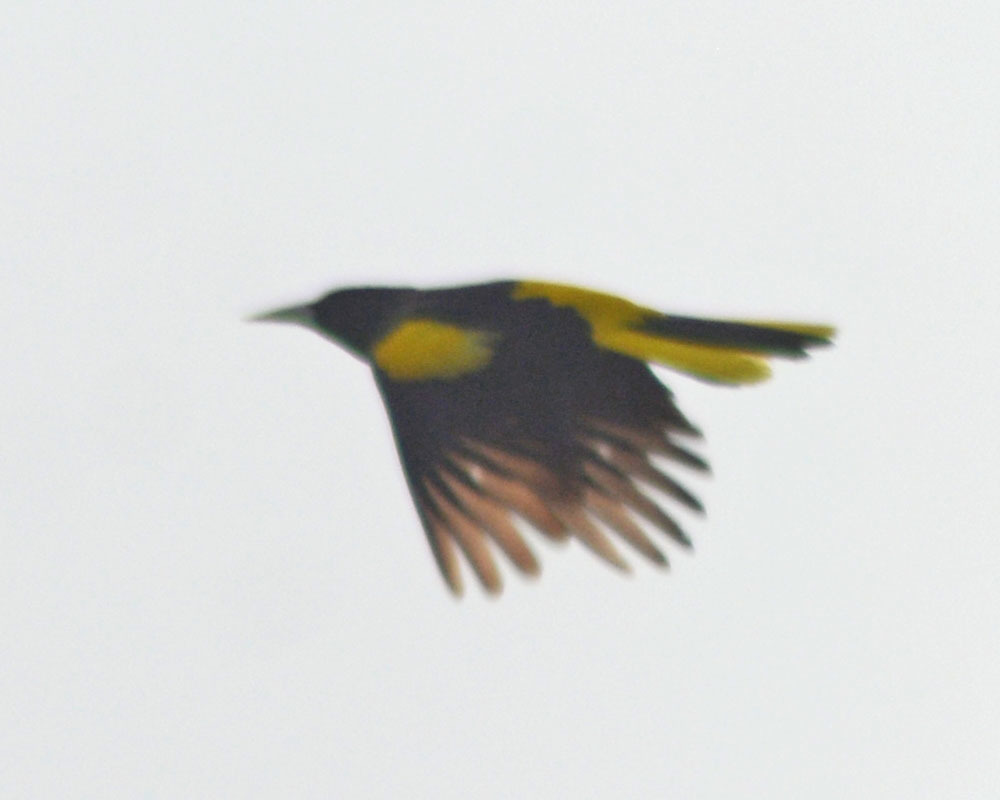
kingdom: Animalia
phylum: Chordata
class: Aves
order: Passeriformes
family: Icteridae
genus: Cacicus
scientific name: Cacicus melanicterus
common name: Yellow-winged cacique
